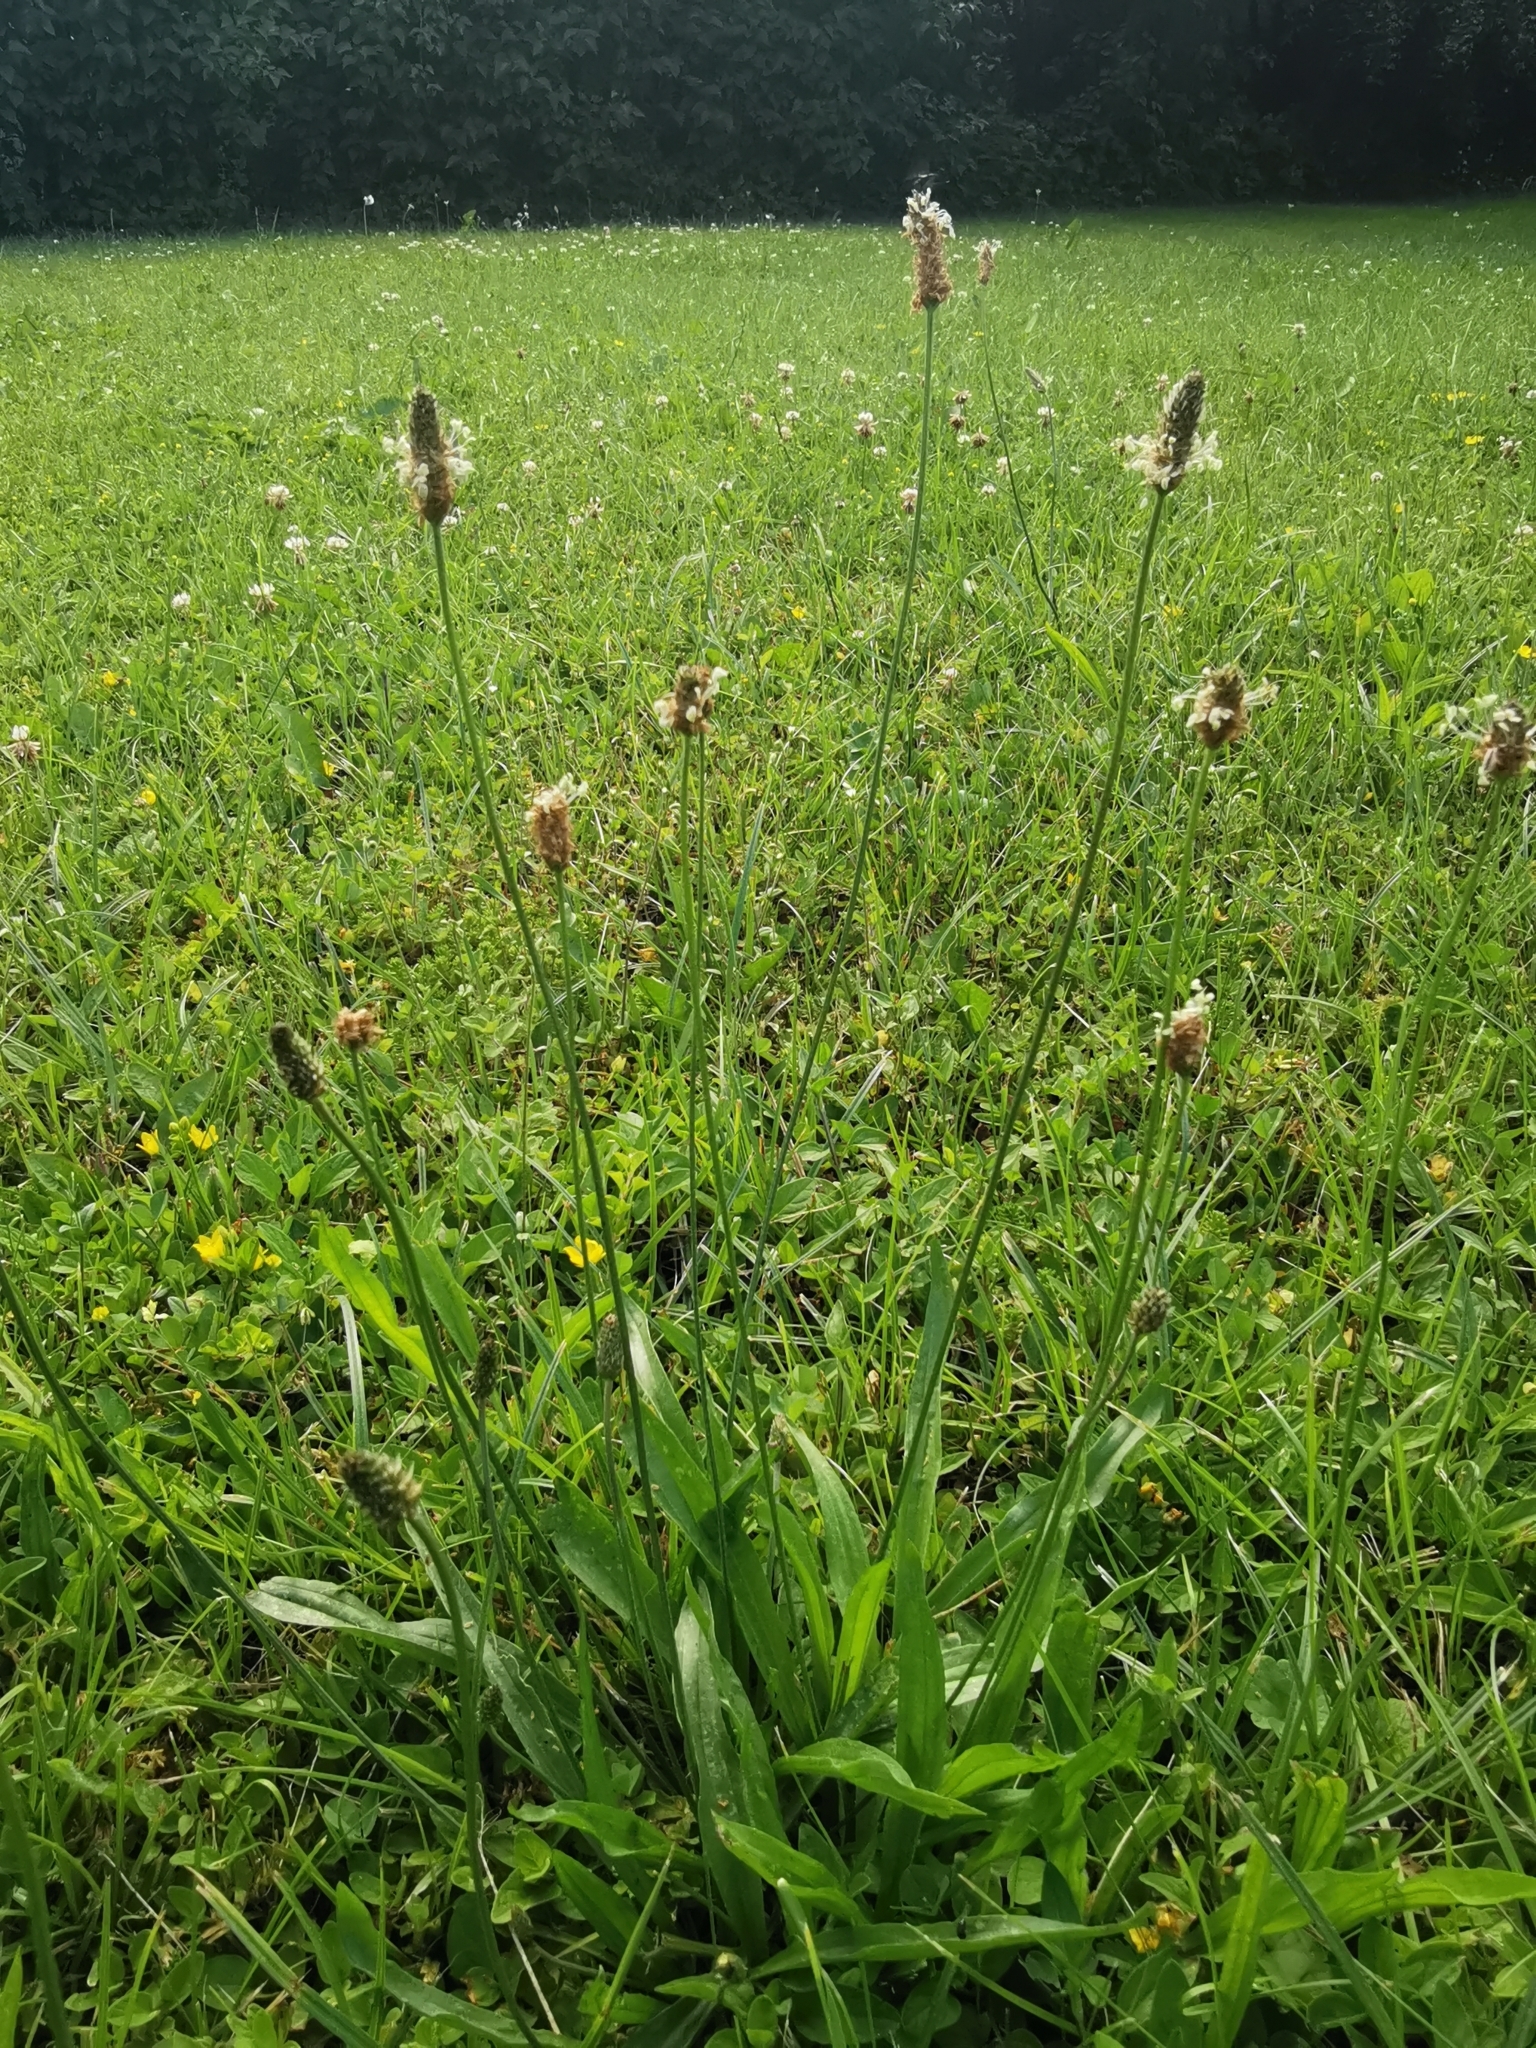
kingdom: Plantae
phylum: Tracheophyta
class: Magnoliopsida
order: Lamiales
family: Plantaginaceae
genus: Plantago
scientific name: Plantago lanceolata
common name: Ribwort plantain
